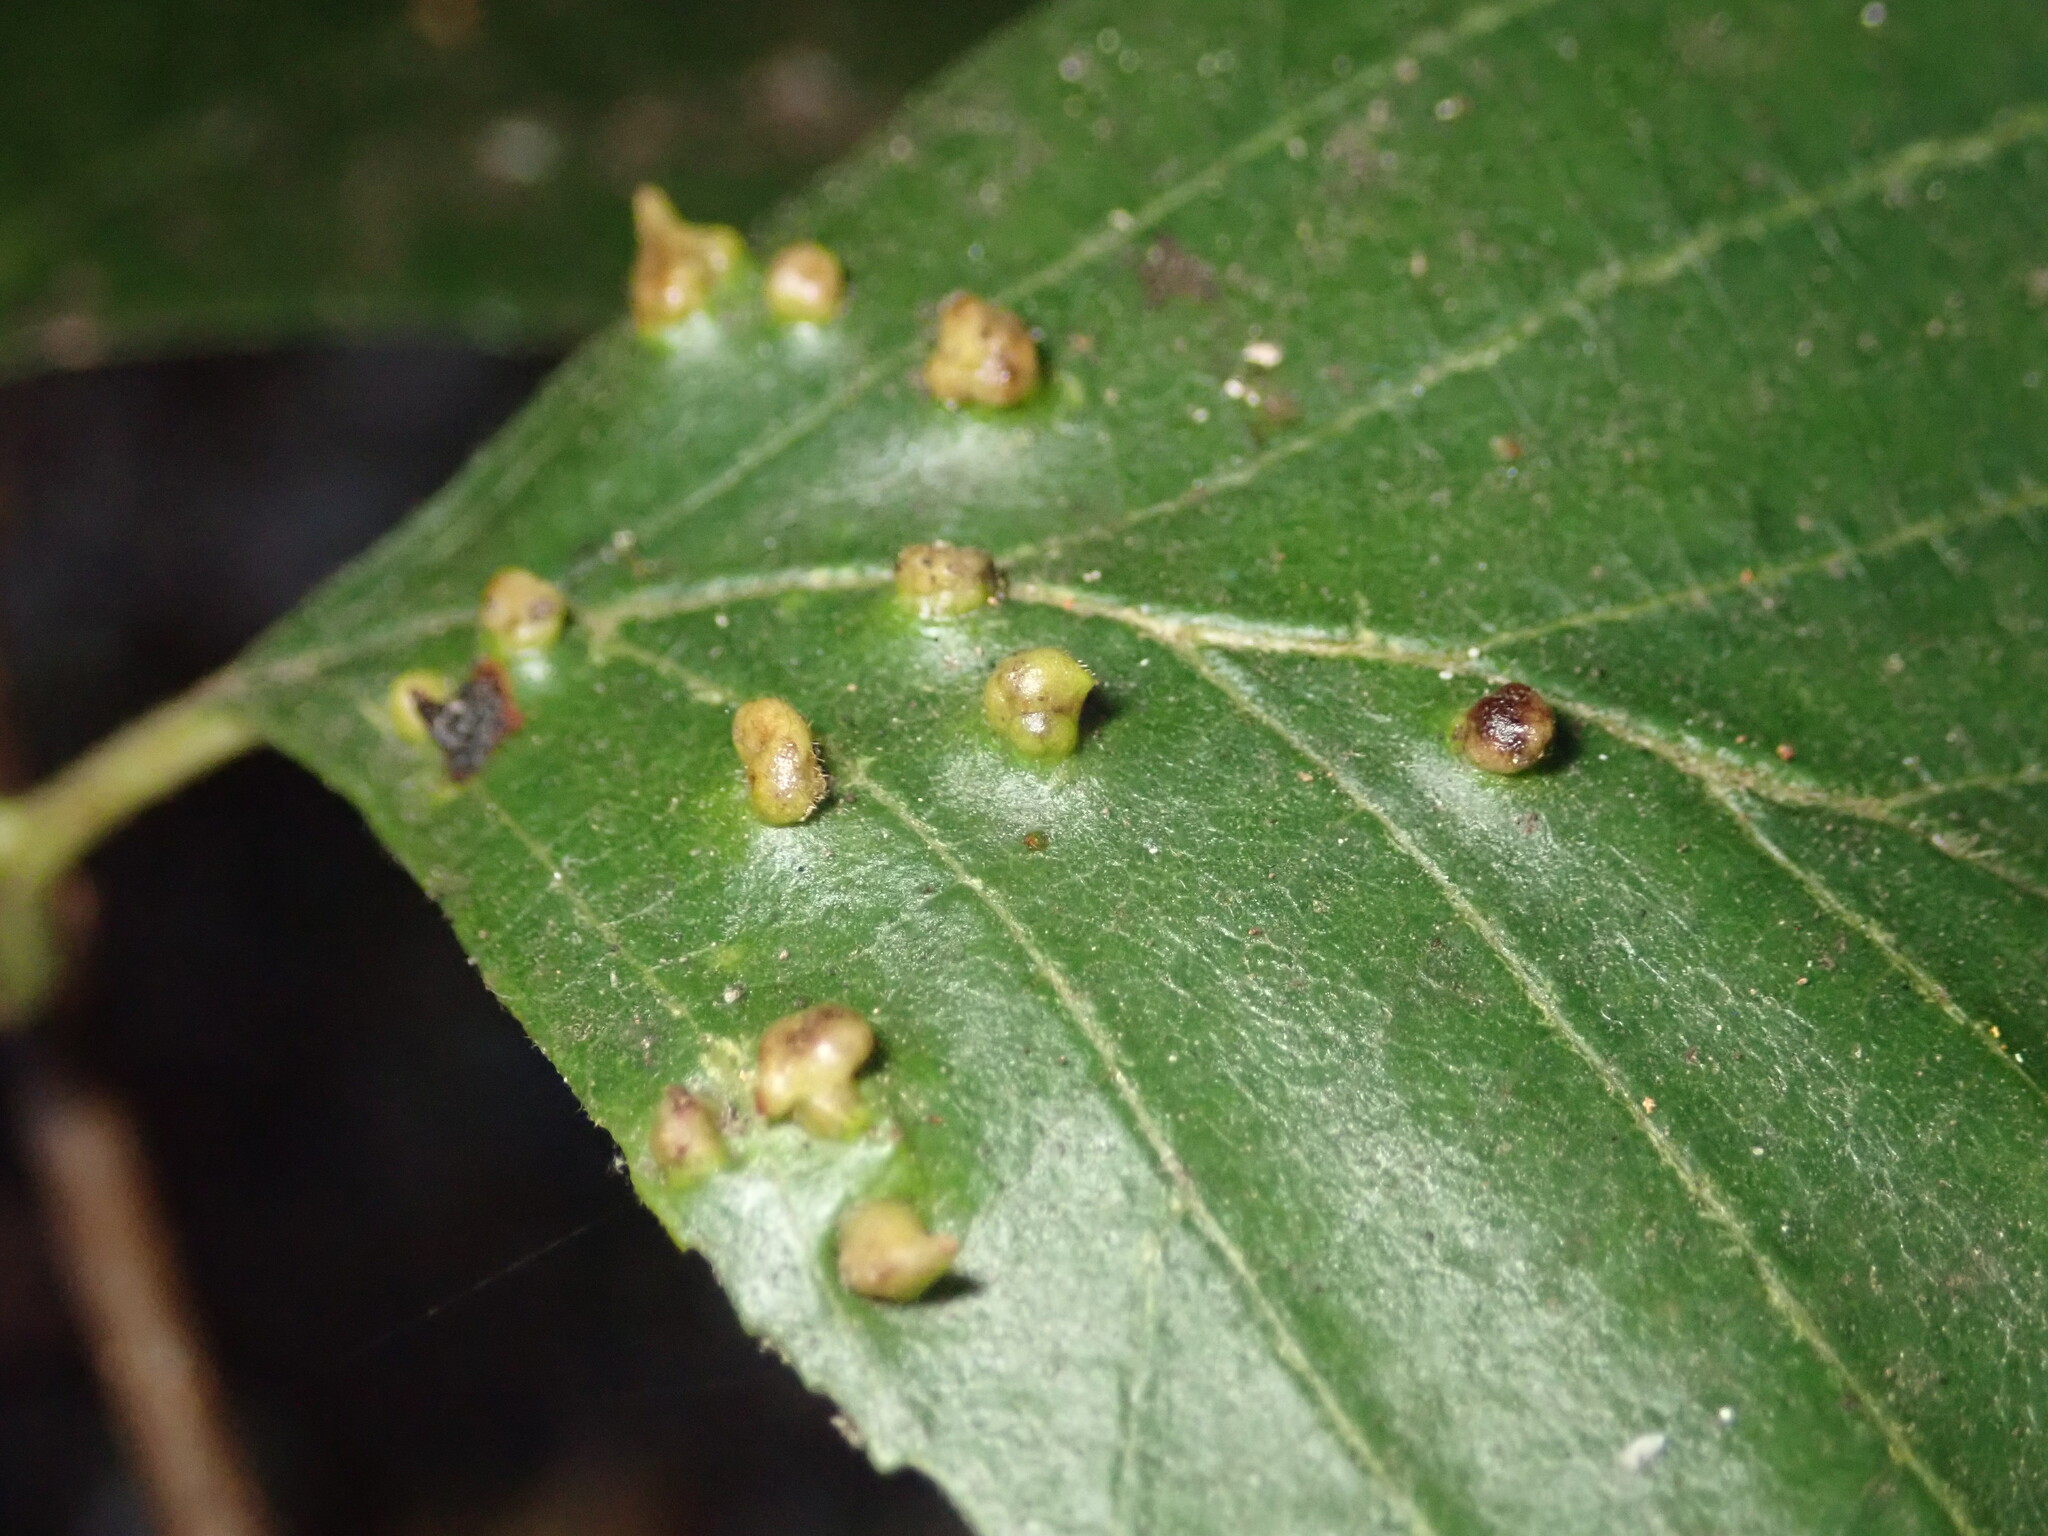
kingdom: Animalia
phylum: Arthropoda
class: Arachnida
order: Trombidiformes
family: Eriophyidae
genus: Eriophyes
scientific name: Eriophyes laevis
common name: Alder leaf gall mite
